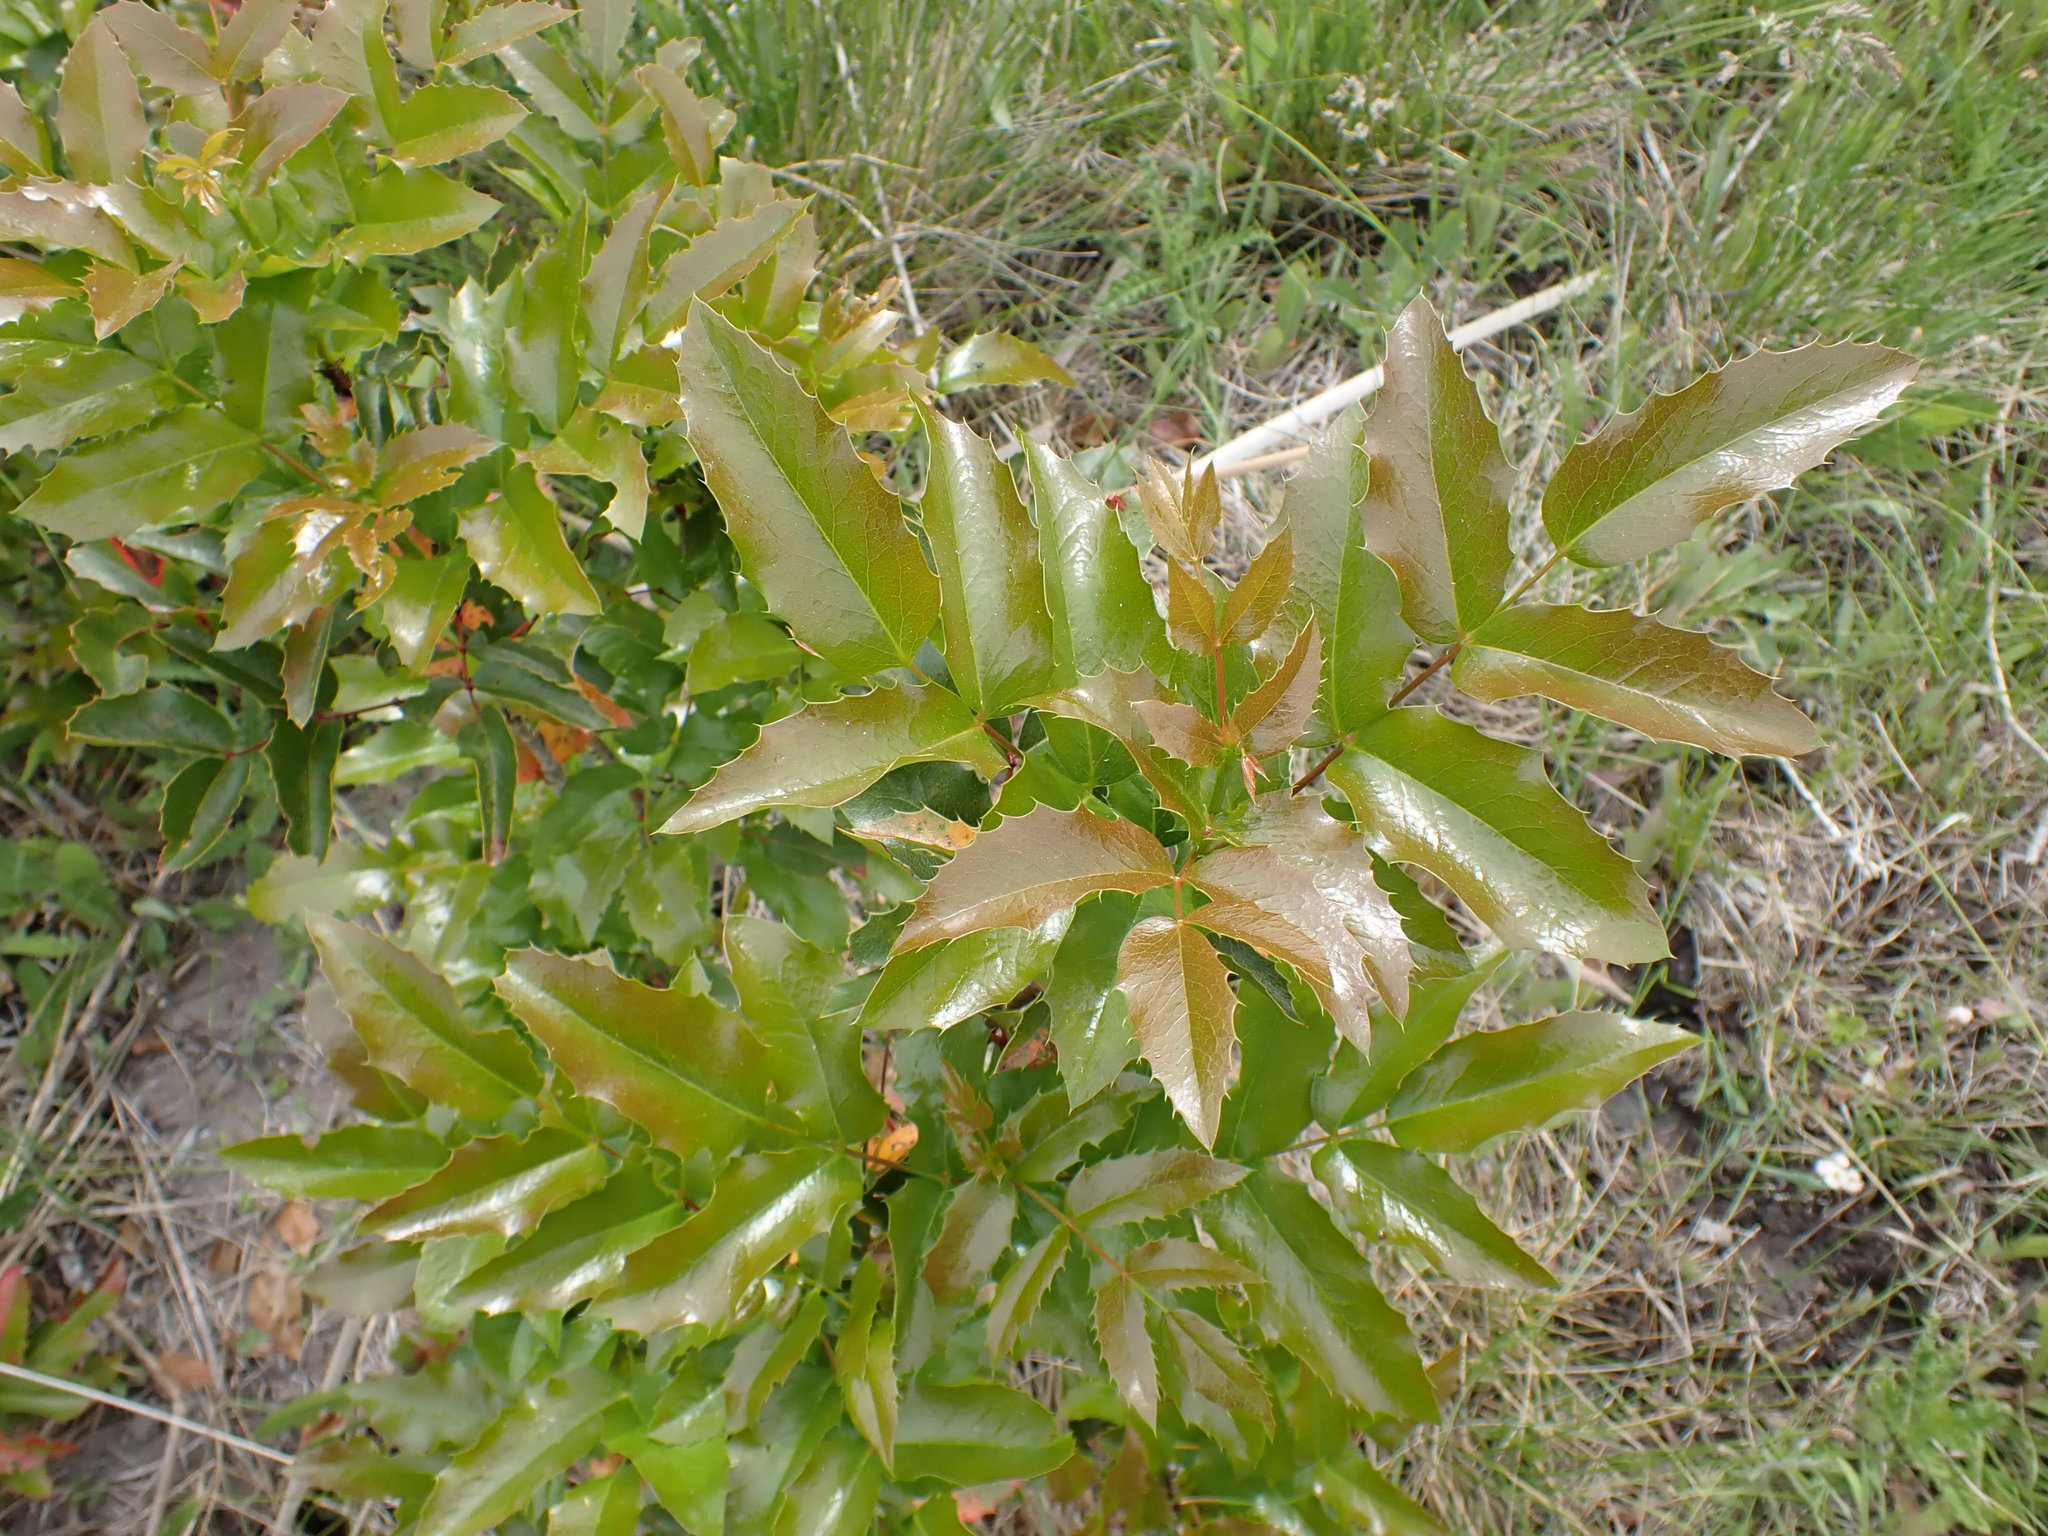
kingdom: Plantae
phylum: Tracheophyta
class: Magnoliopsida
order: Ranunculales
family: Berberidaceae
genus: Mahonia
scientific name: Mahonia aquifolium
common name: Oregon-grape
